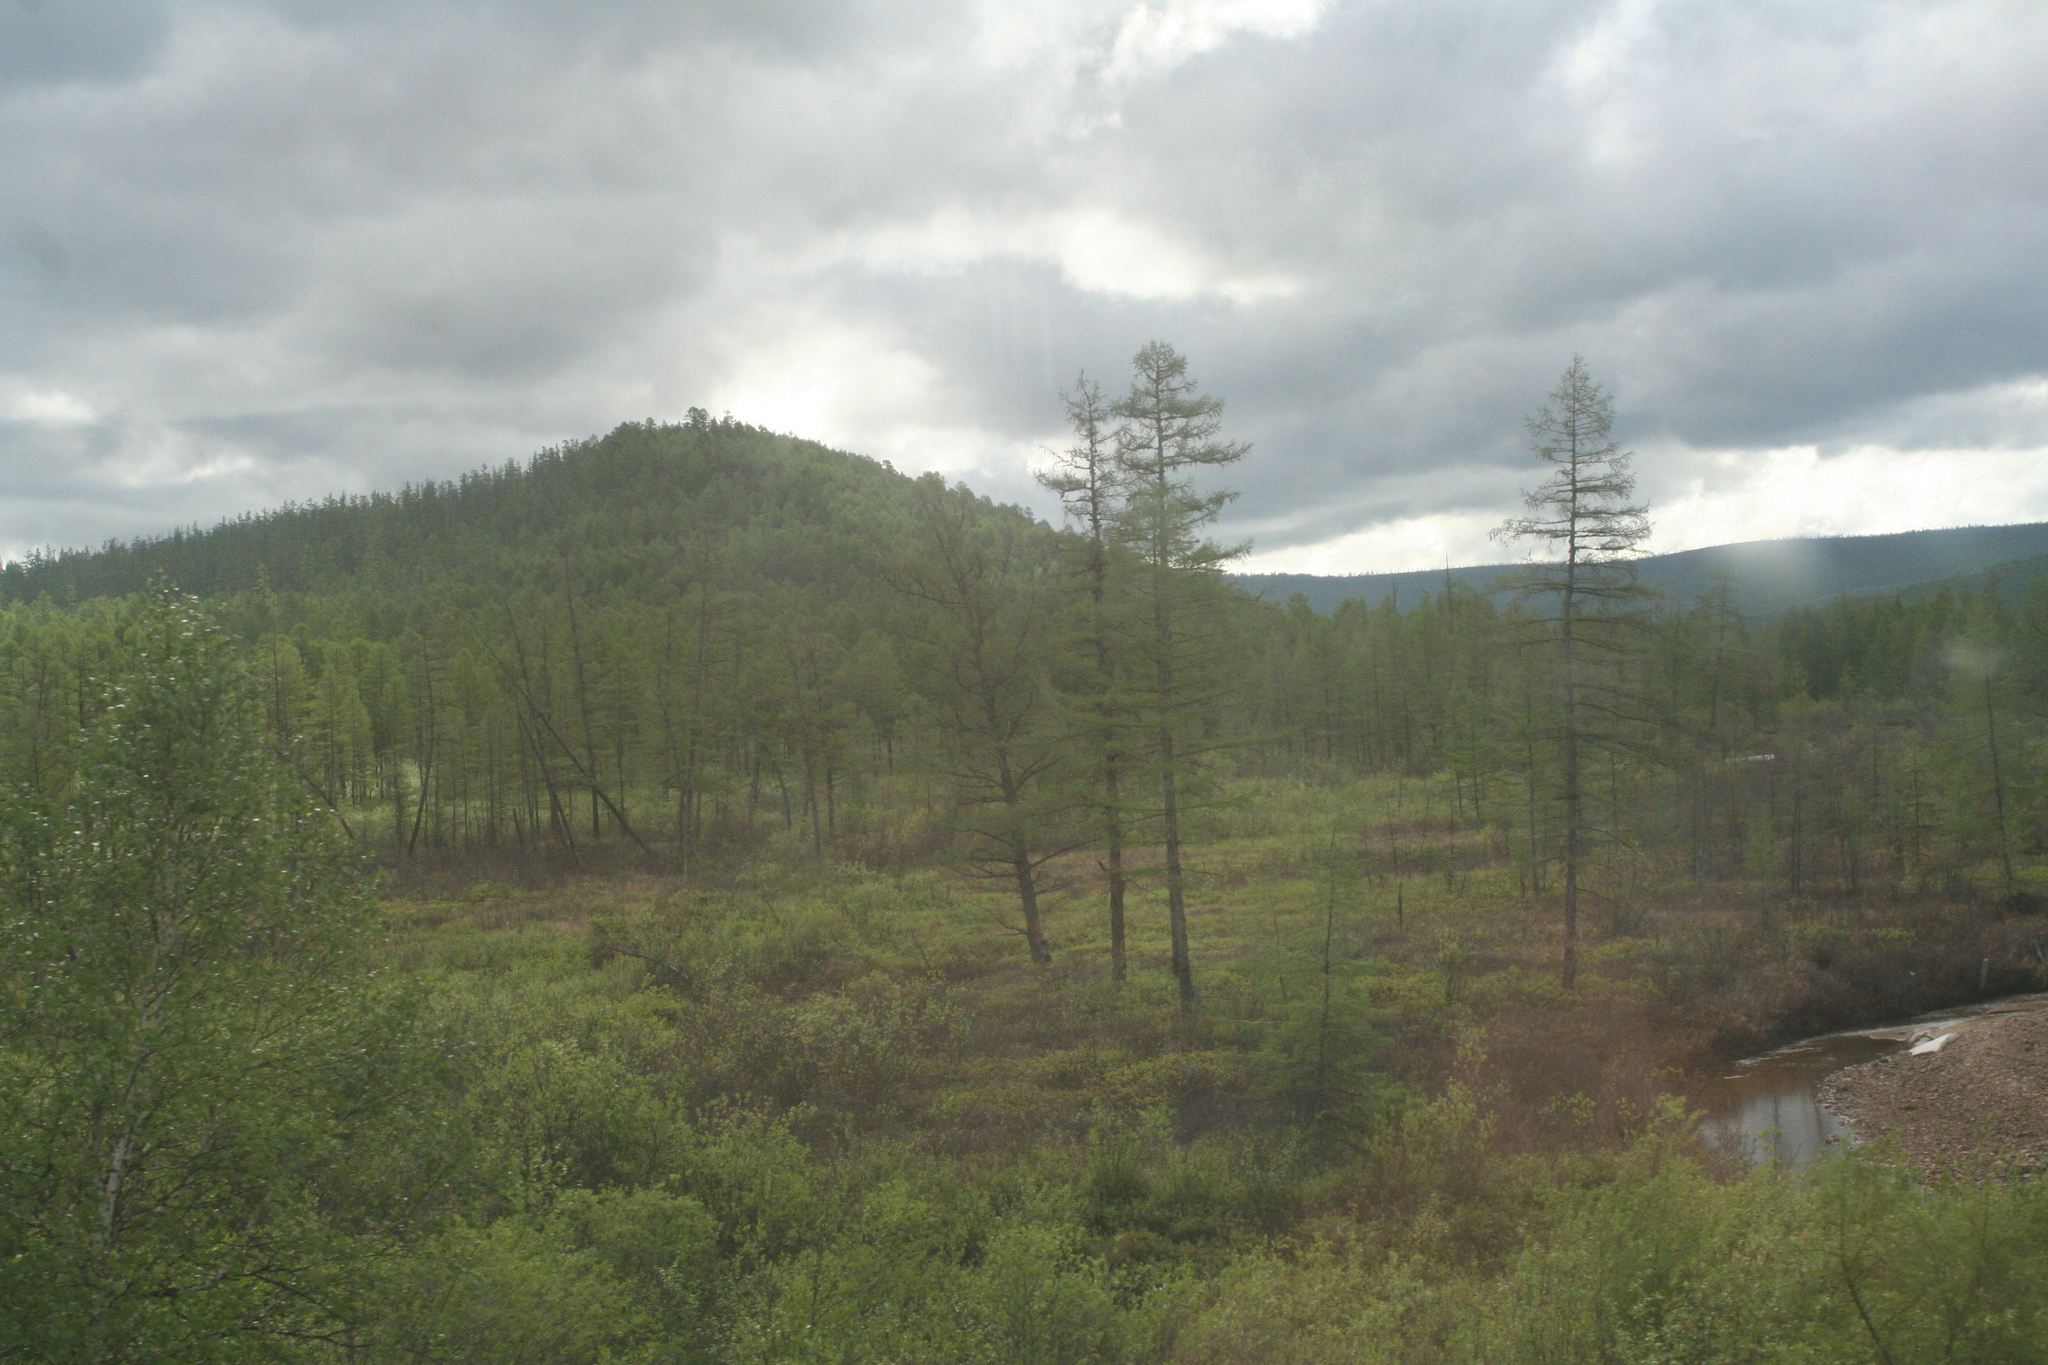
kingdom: Plantae
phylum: Tracheophyta
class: Pinopsida
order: Pinales
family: Pinaceae
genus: Larix
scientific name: Larix gmelinii
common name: Dahurian larch
